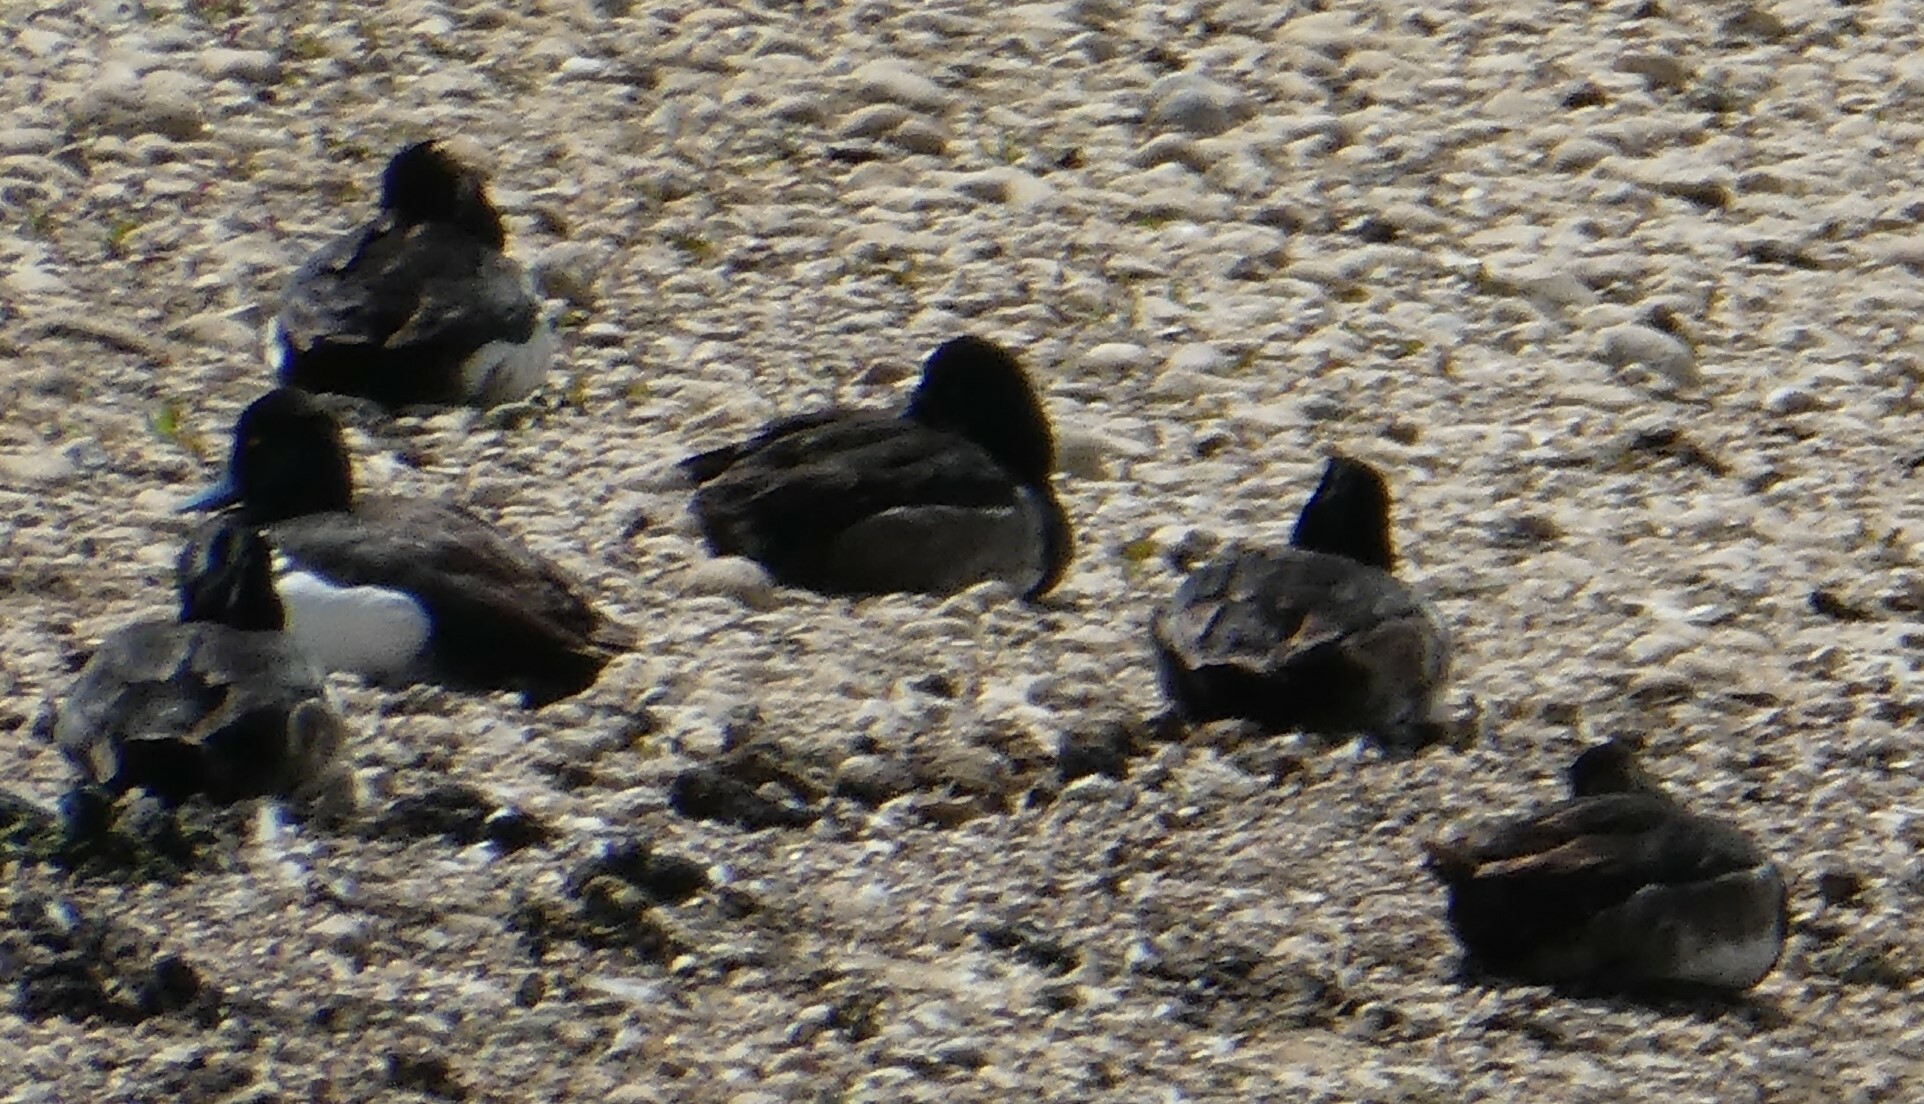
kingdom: Animalia
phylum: Chordata
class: Aves
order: Anseriformes
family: Anatidae
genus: Aythya
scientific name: Aythya fuligula
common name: Tufted duck
